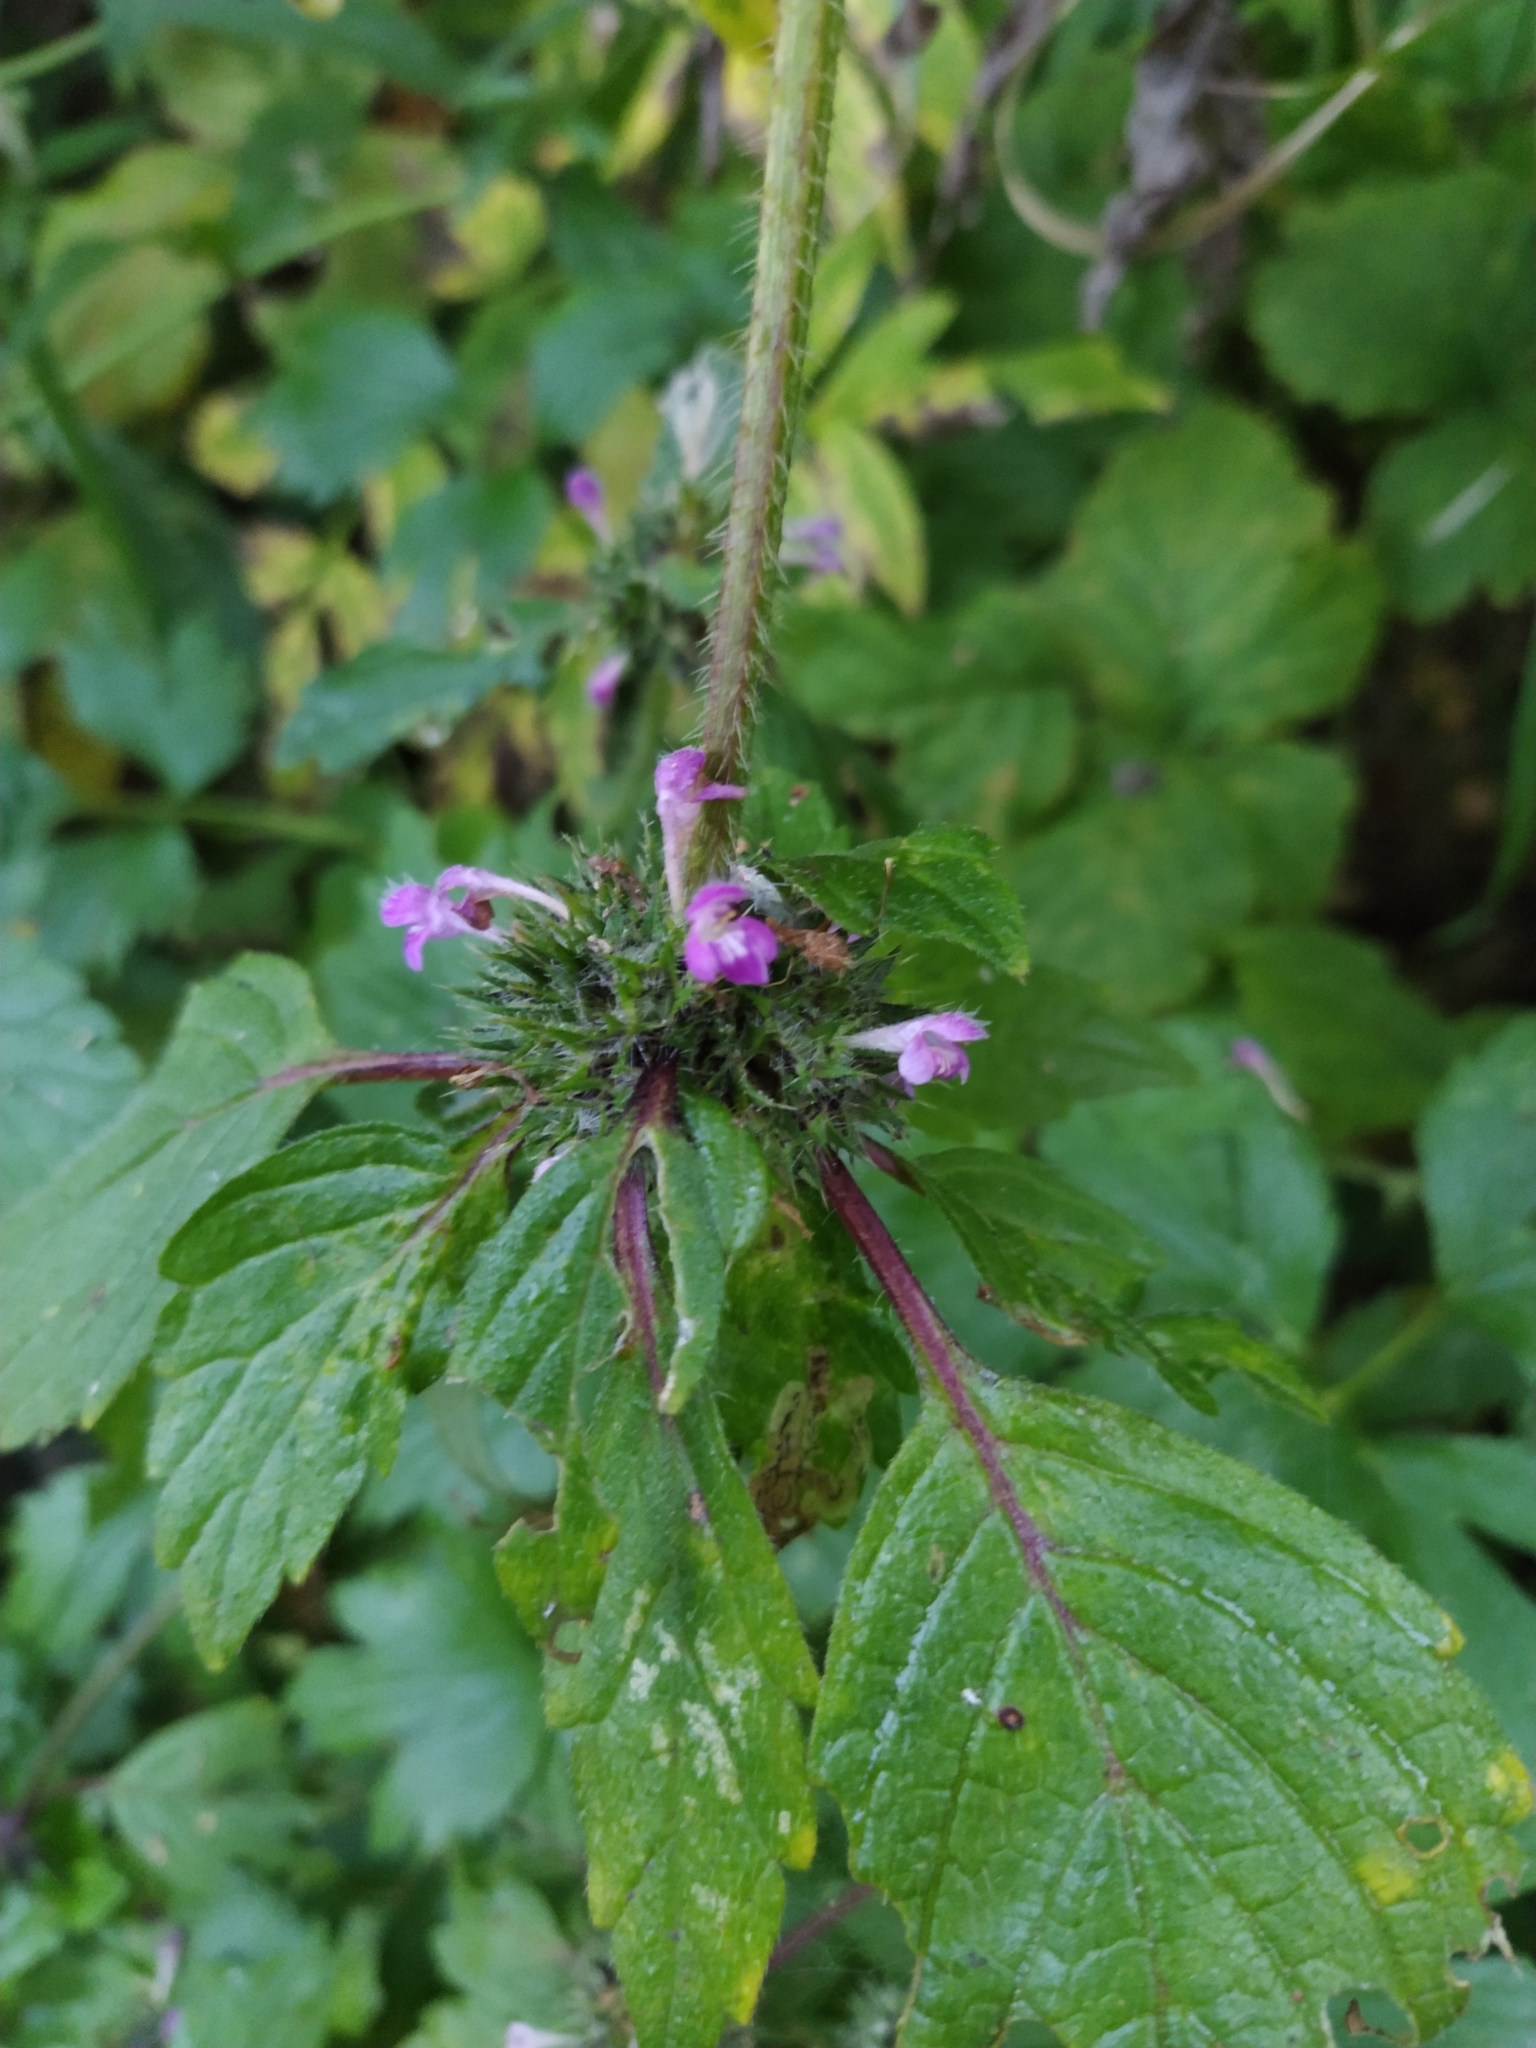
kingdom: Plantae
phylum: Tracheophyta
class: Magnoliopsida
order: Lamiales
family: Lamiaceae
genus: Galeopsis
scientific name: Galeopsis bifida
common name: Bifid hemp-nettle
